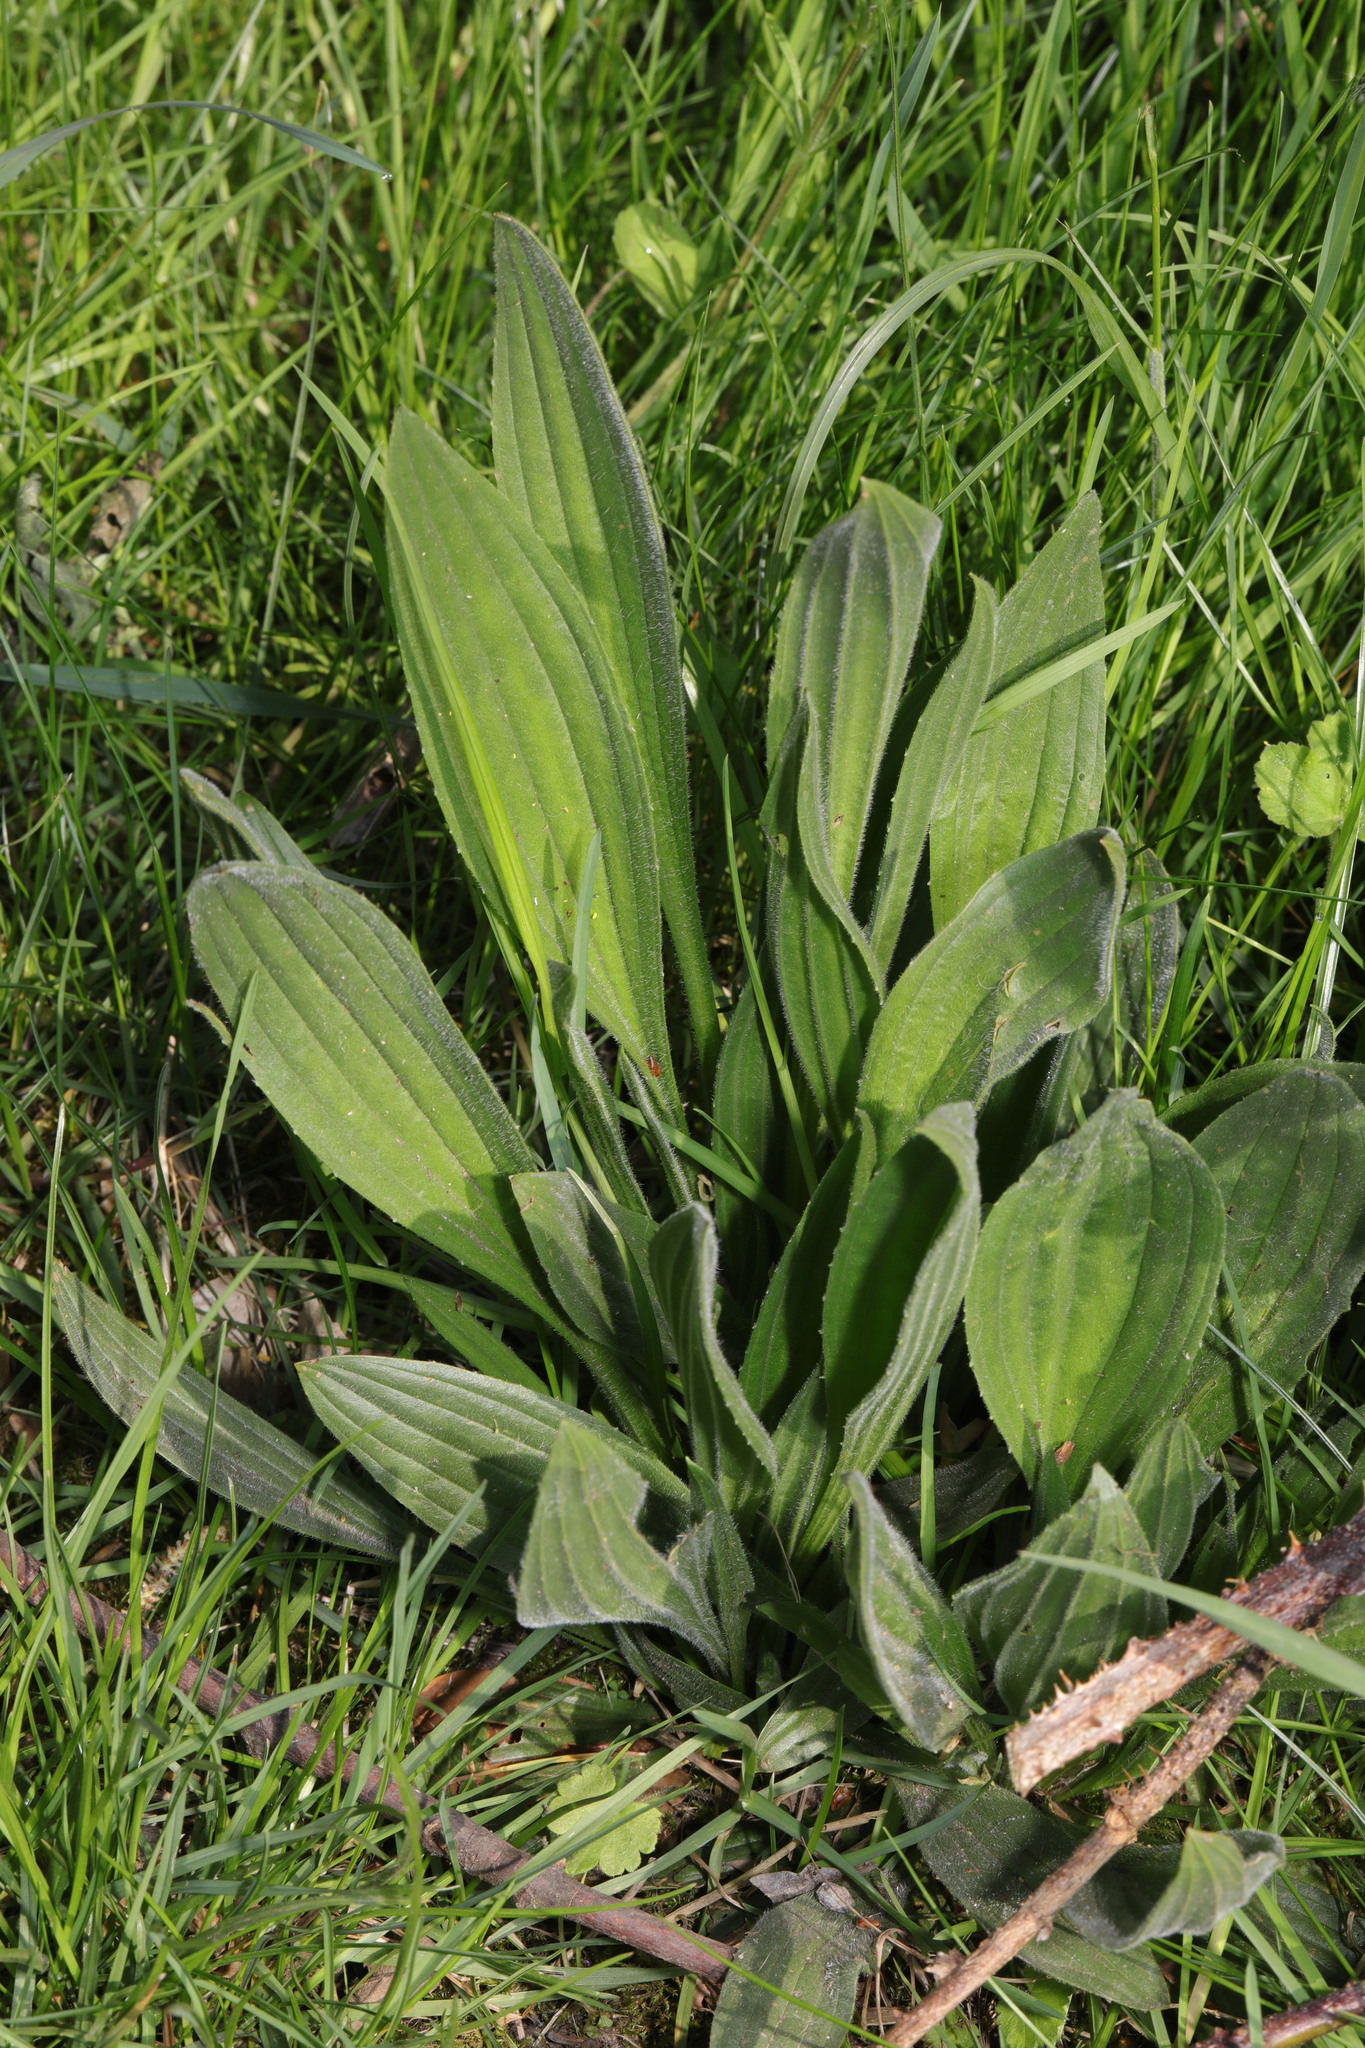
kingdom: Plantae
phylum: Tracheophyta
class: Magnoliopsida
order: Lamiales
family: Plantaginaceae
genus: Plantago
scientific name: Plantago lanceolata
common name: Ribwort plantain
